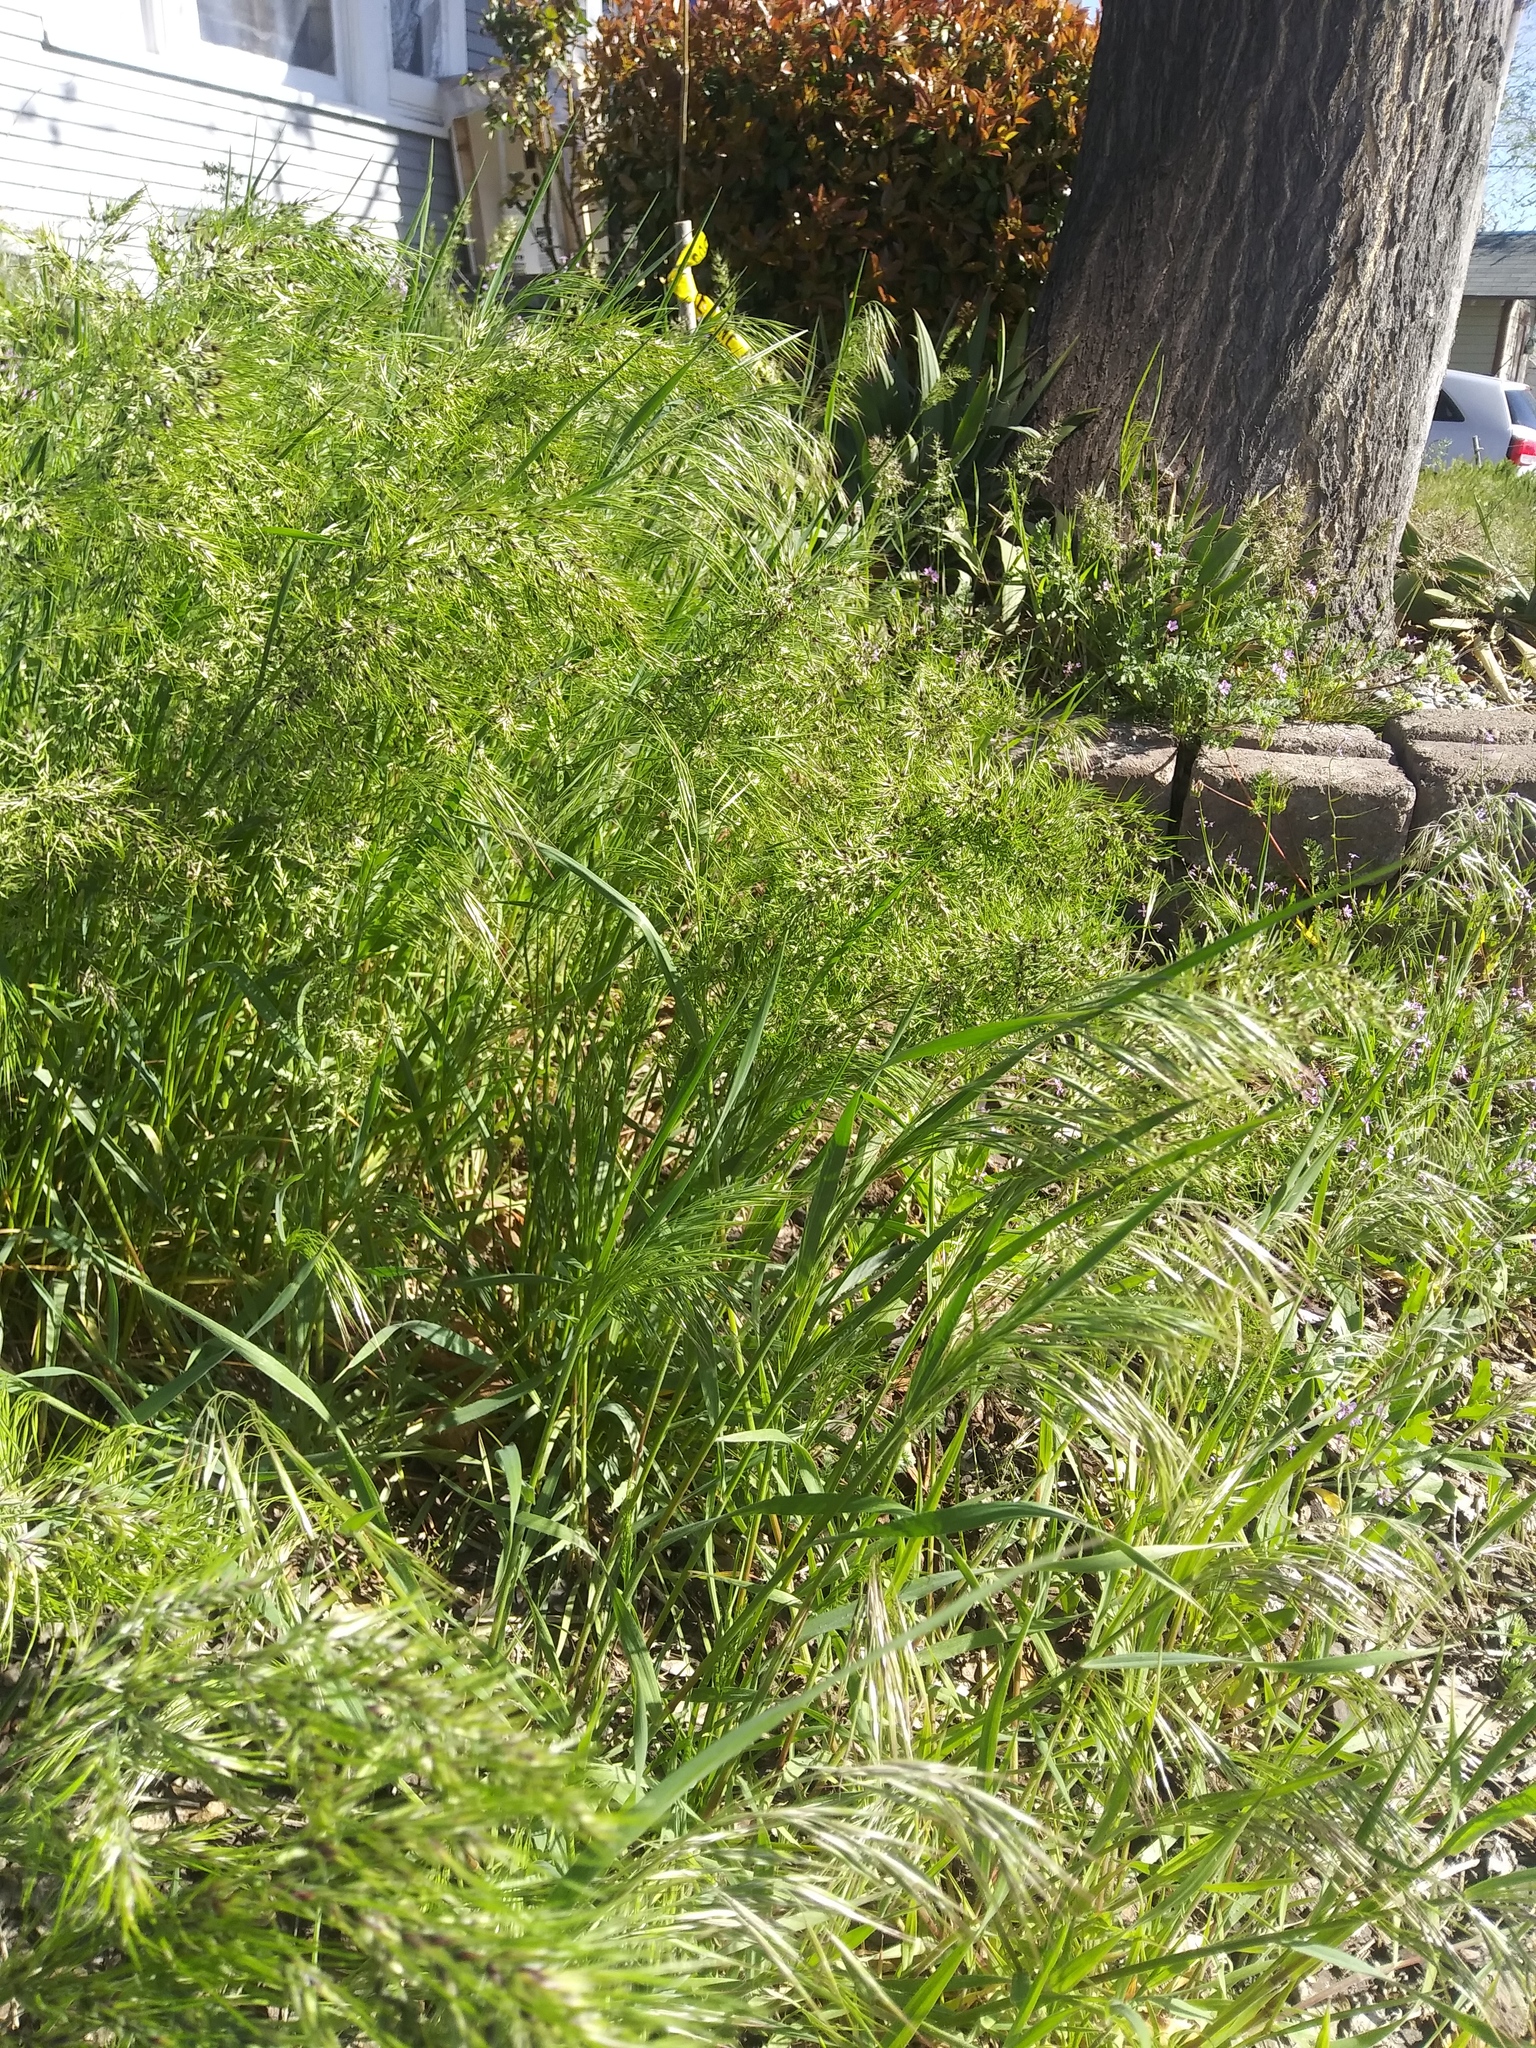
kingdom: Plantae
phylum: Tracheophyta
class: Liliopsida
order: Poales
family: Poaceae
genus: Bromus
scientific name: Bromus tectorum
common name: Cheatgrass
